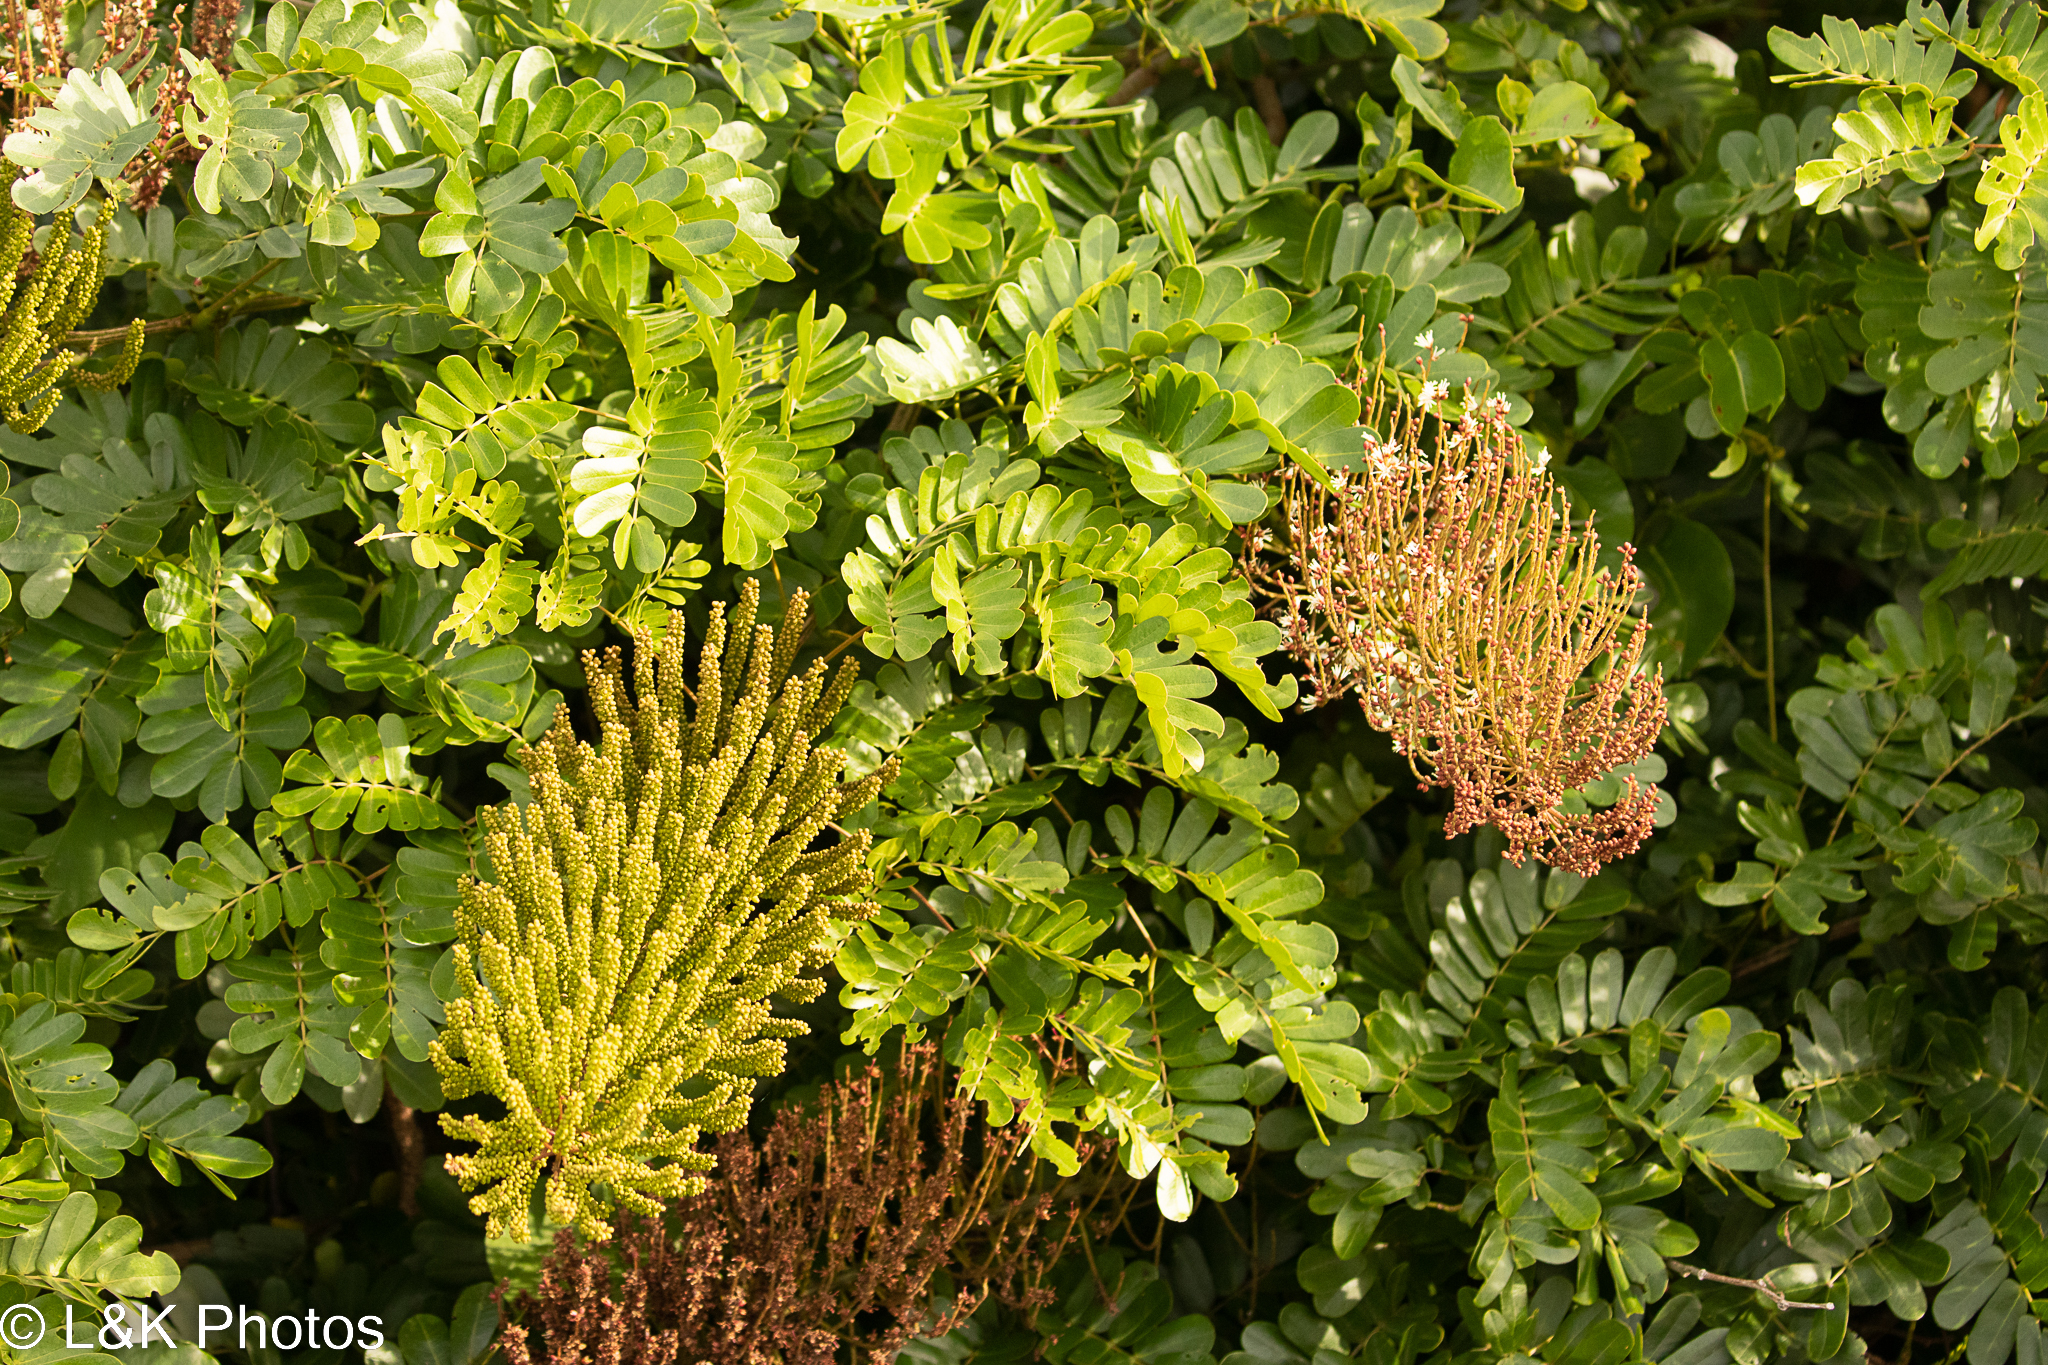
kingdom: Plantae
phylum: Tracheophyta
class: Magnoliopsida
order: Fabales
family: Fabaceae
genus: Entada
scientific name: Entada polystachya
